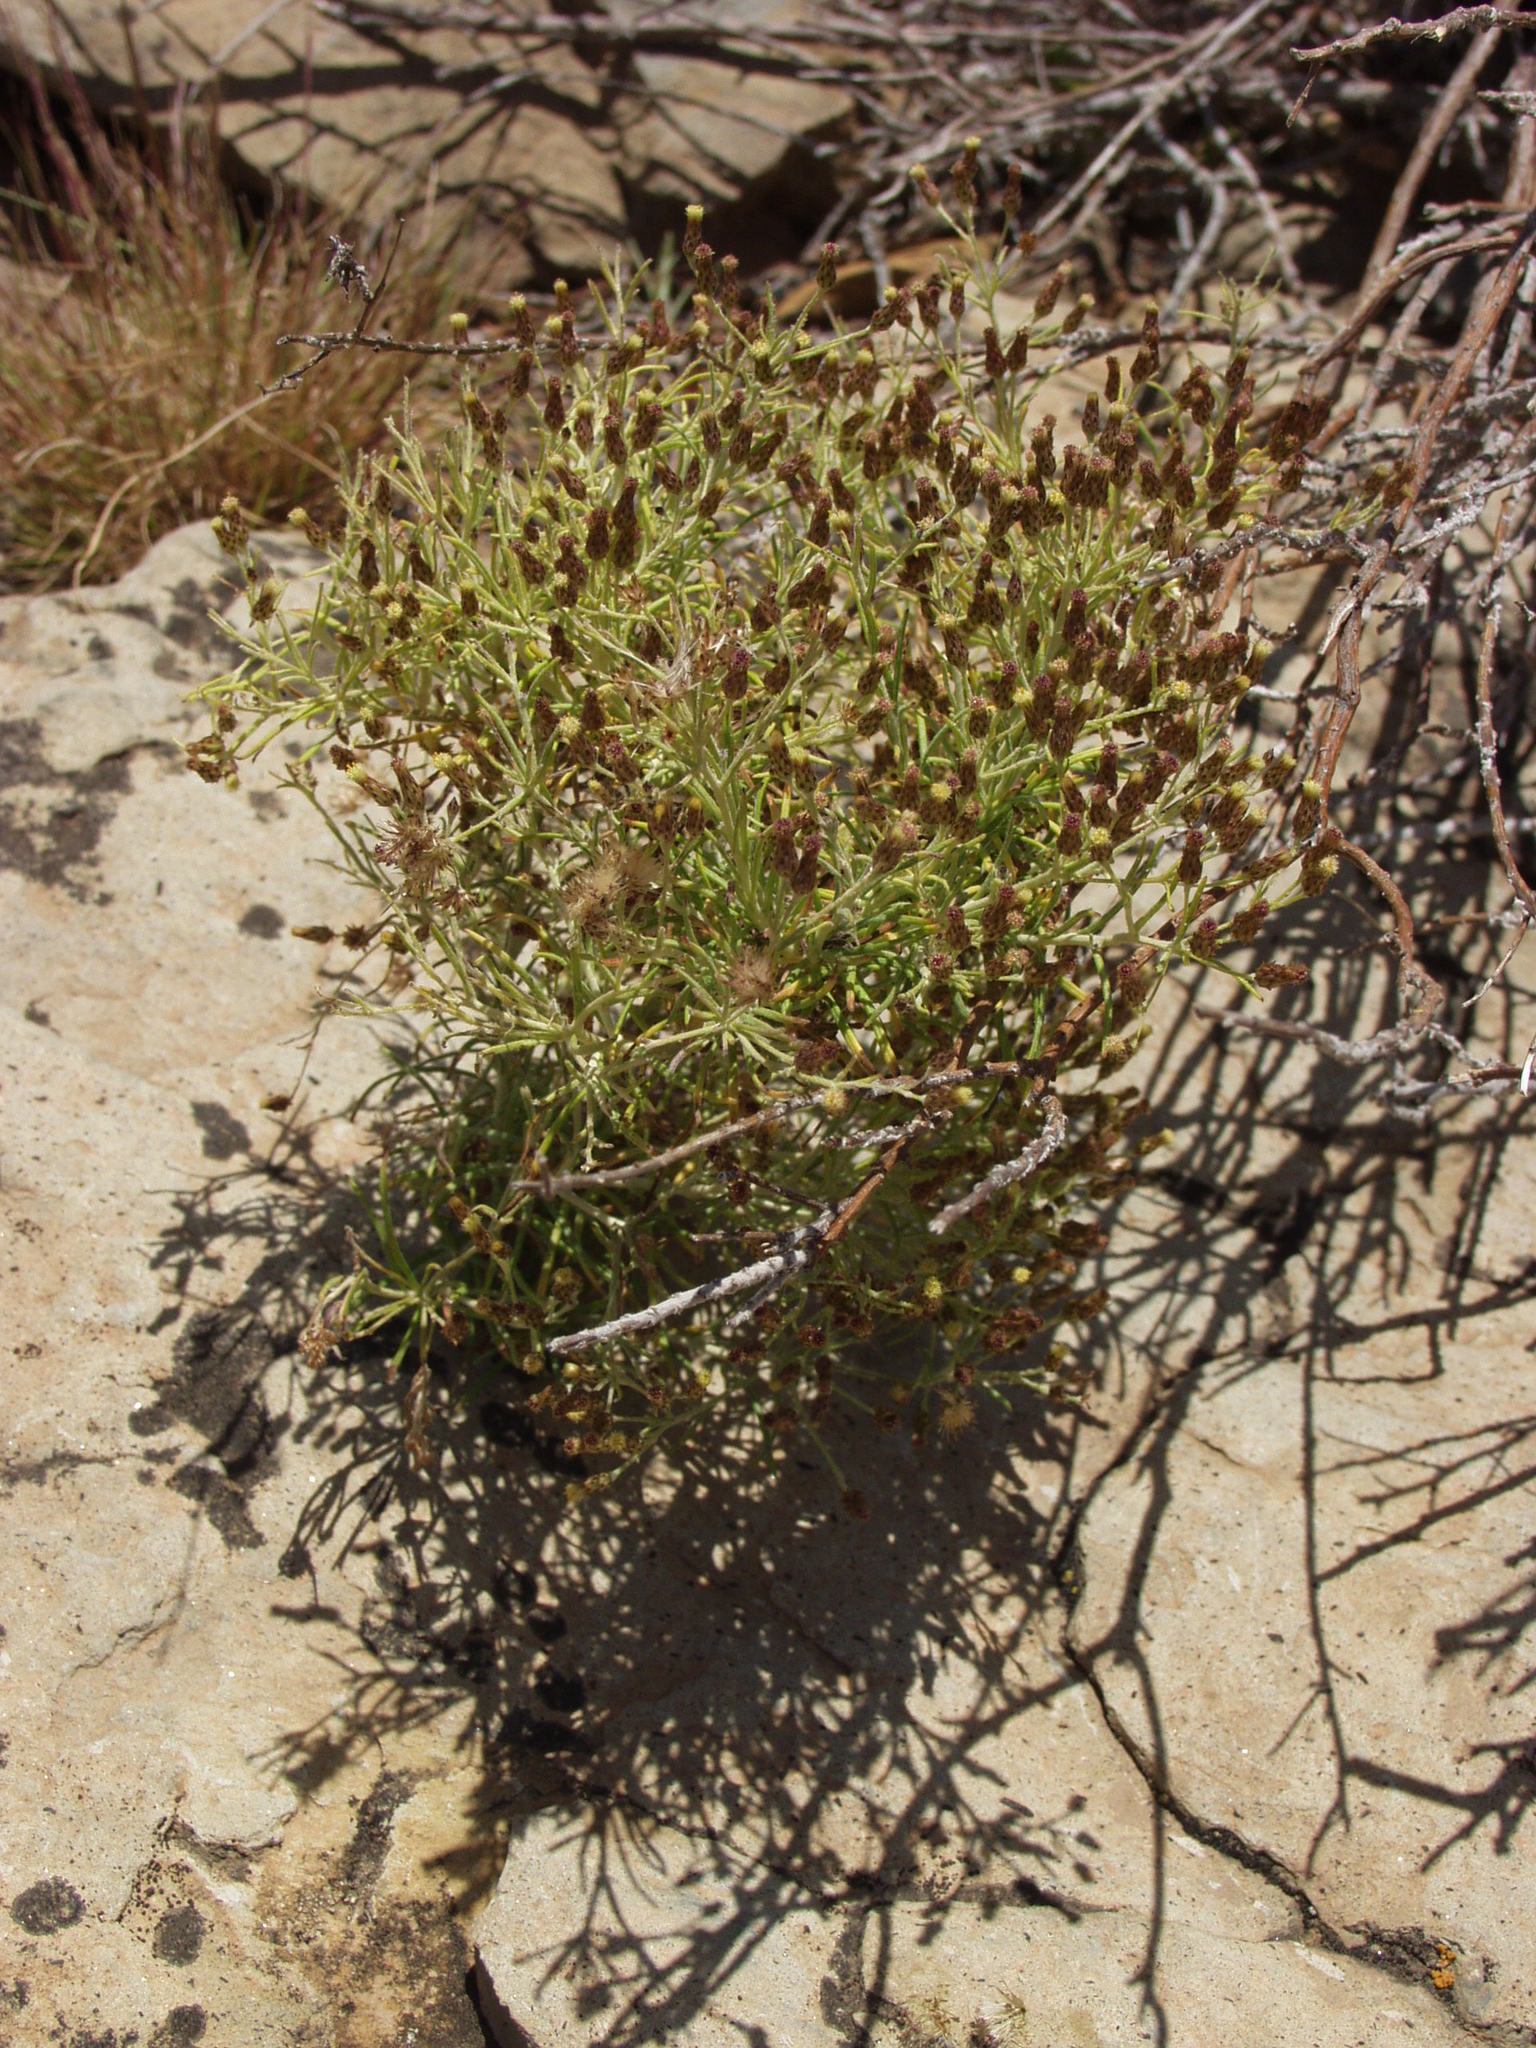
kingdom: Plantae
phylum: Tracheophyta
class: Magnoliopsida
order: Asterales
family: Asteraceae
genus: Phagnalon
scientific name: Phagnalon umbelliforme
